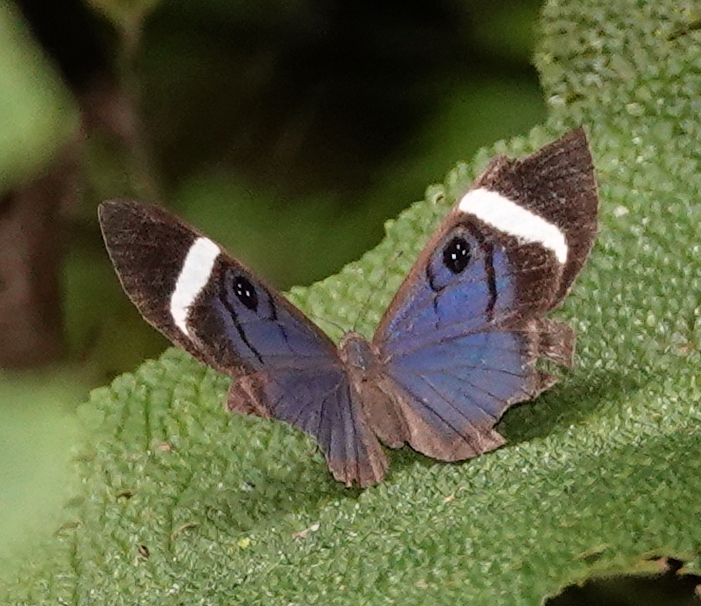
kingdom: Animalia
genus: Mesosemia
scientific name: Mesosemia mevania
